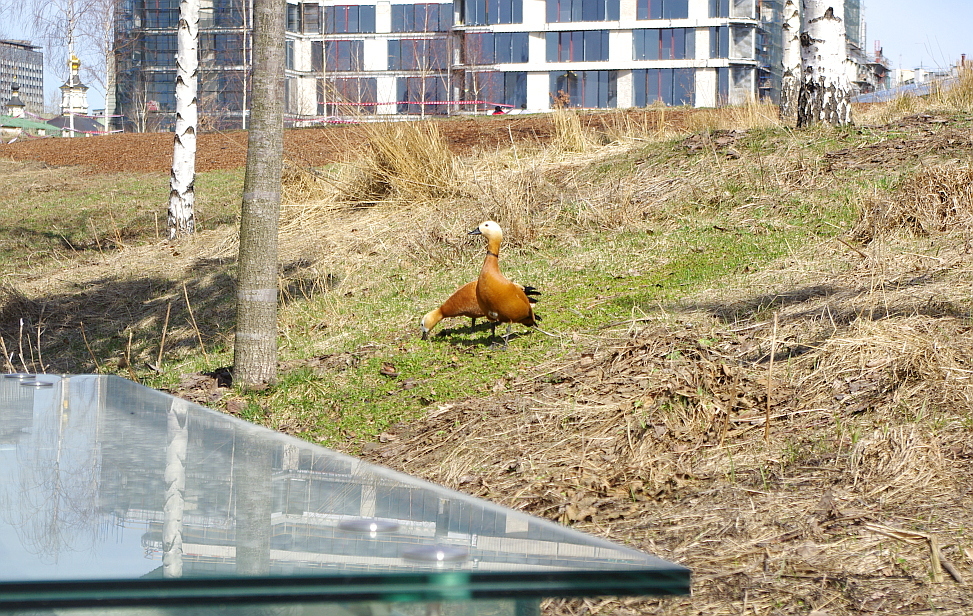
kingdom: Animalia
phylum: Chordata
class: Aves
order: Anseriformes
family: Anatidae
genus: Tadorna
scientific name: Tadorna ferruginea
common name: Ruddy shelduck
